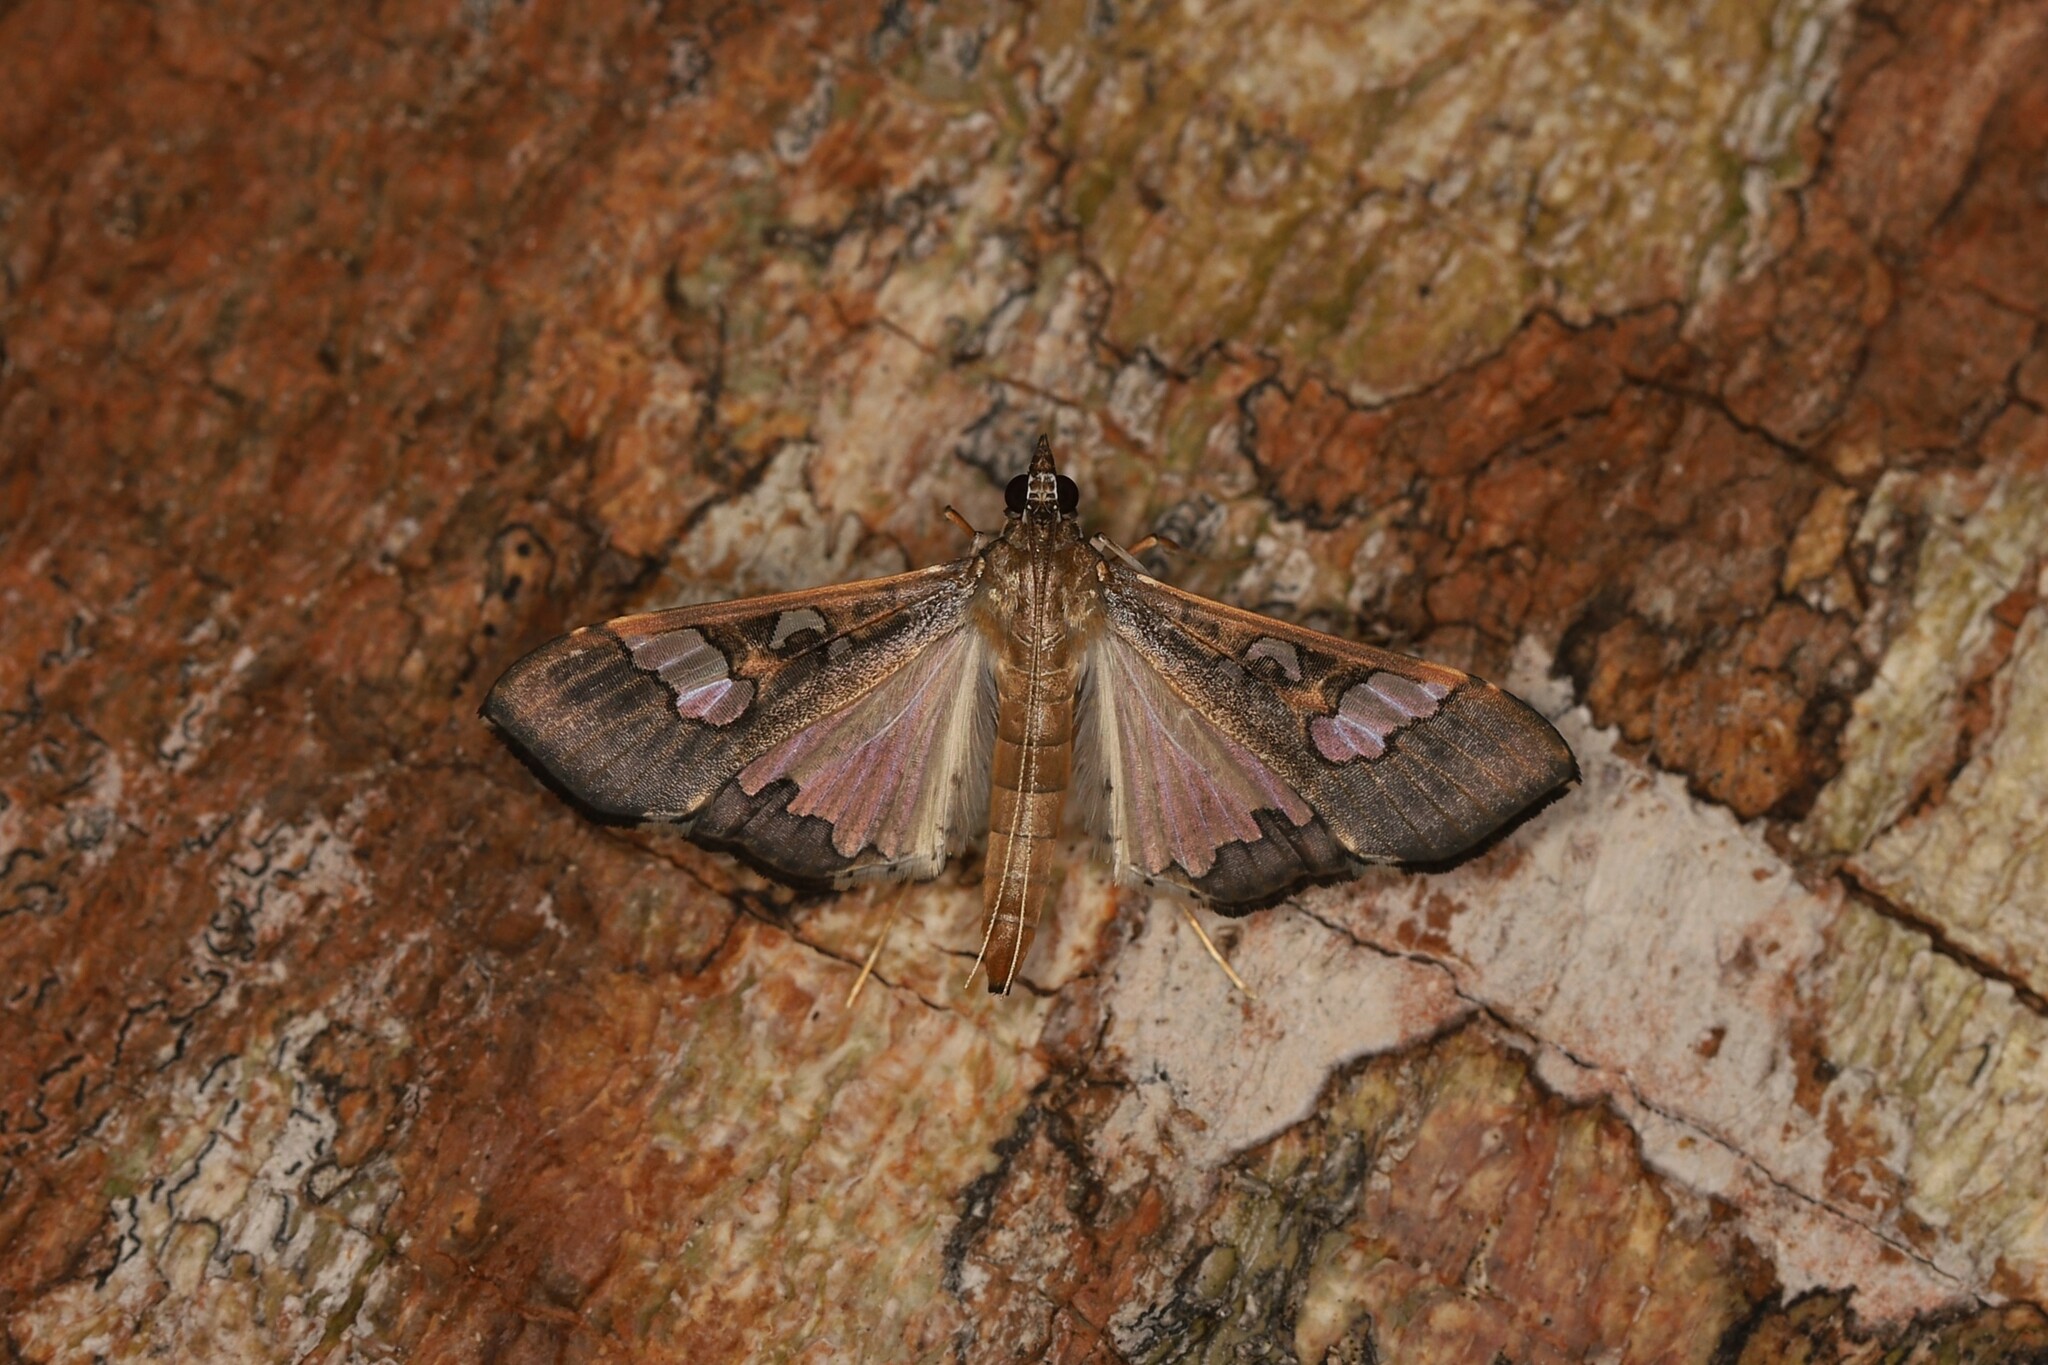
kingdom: Animalia
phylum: Arthropoda
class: Insecta
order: Lepidoptera
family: Crambidae
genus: Maruca
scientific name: Maruca vitrata
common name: Maruca pod borer
